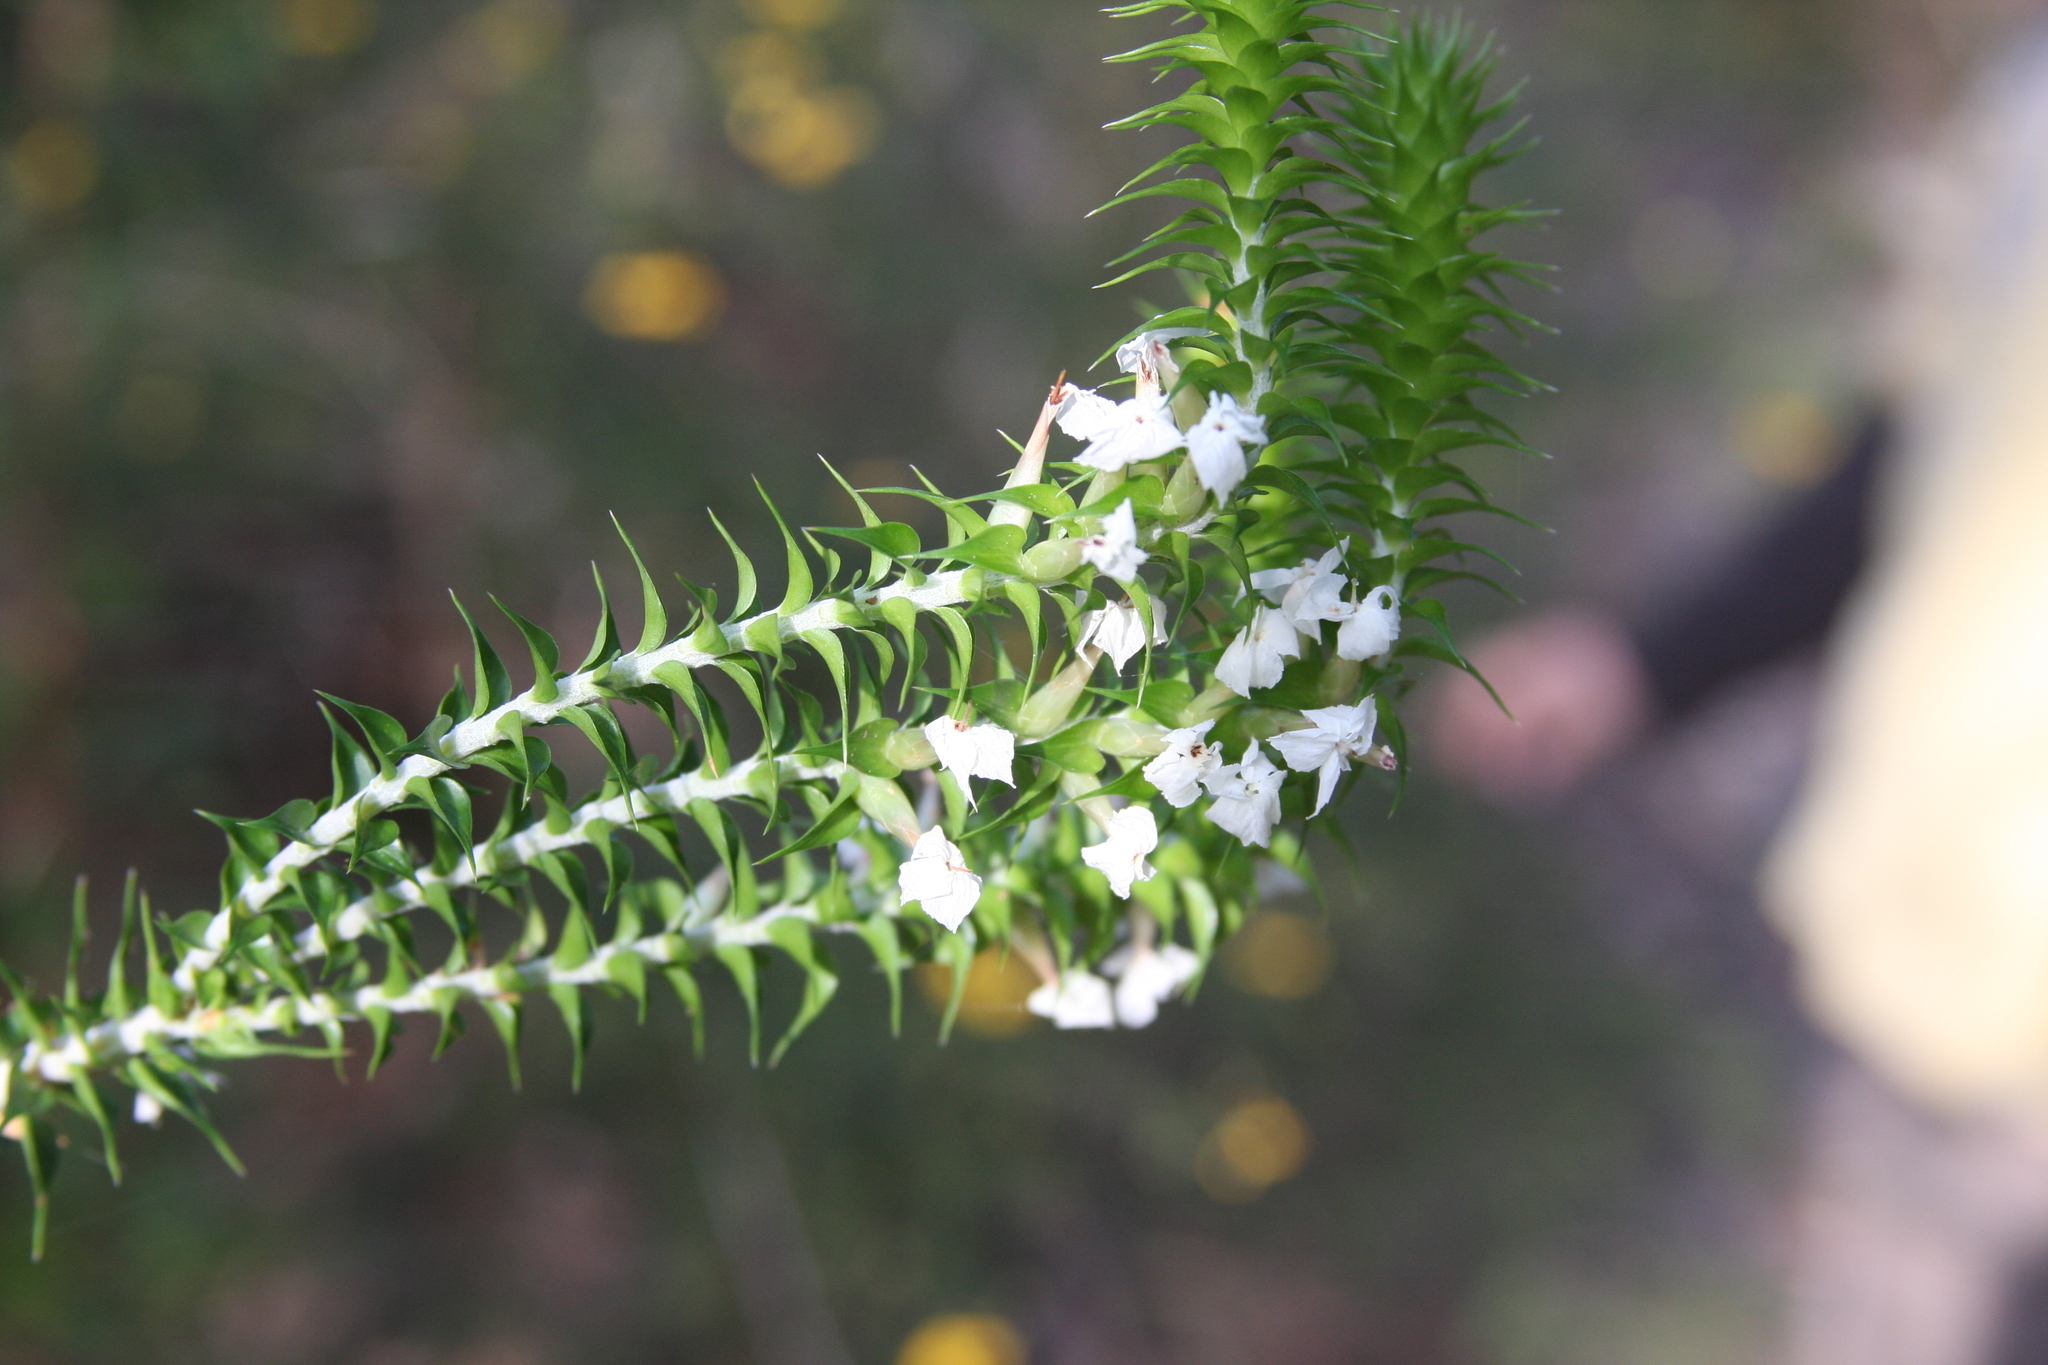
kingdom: Plantae
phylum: Tracheophyta
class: Magnoliopsida
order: Ericales
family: Ericaceae
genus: Woollsia
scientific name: Woollsia pungens
